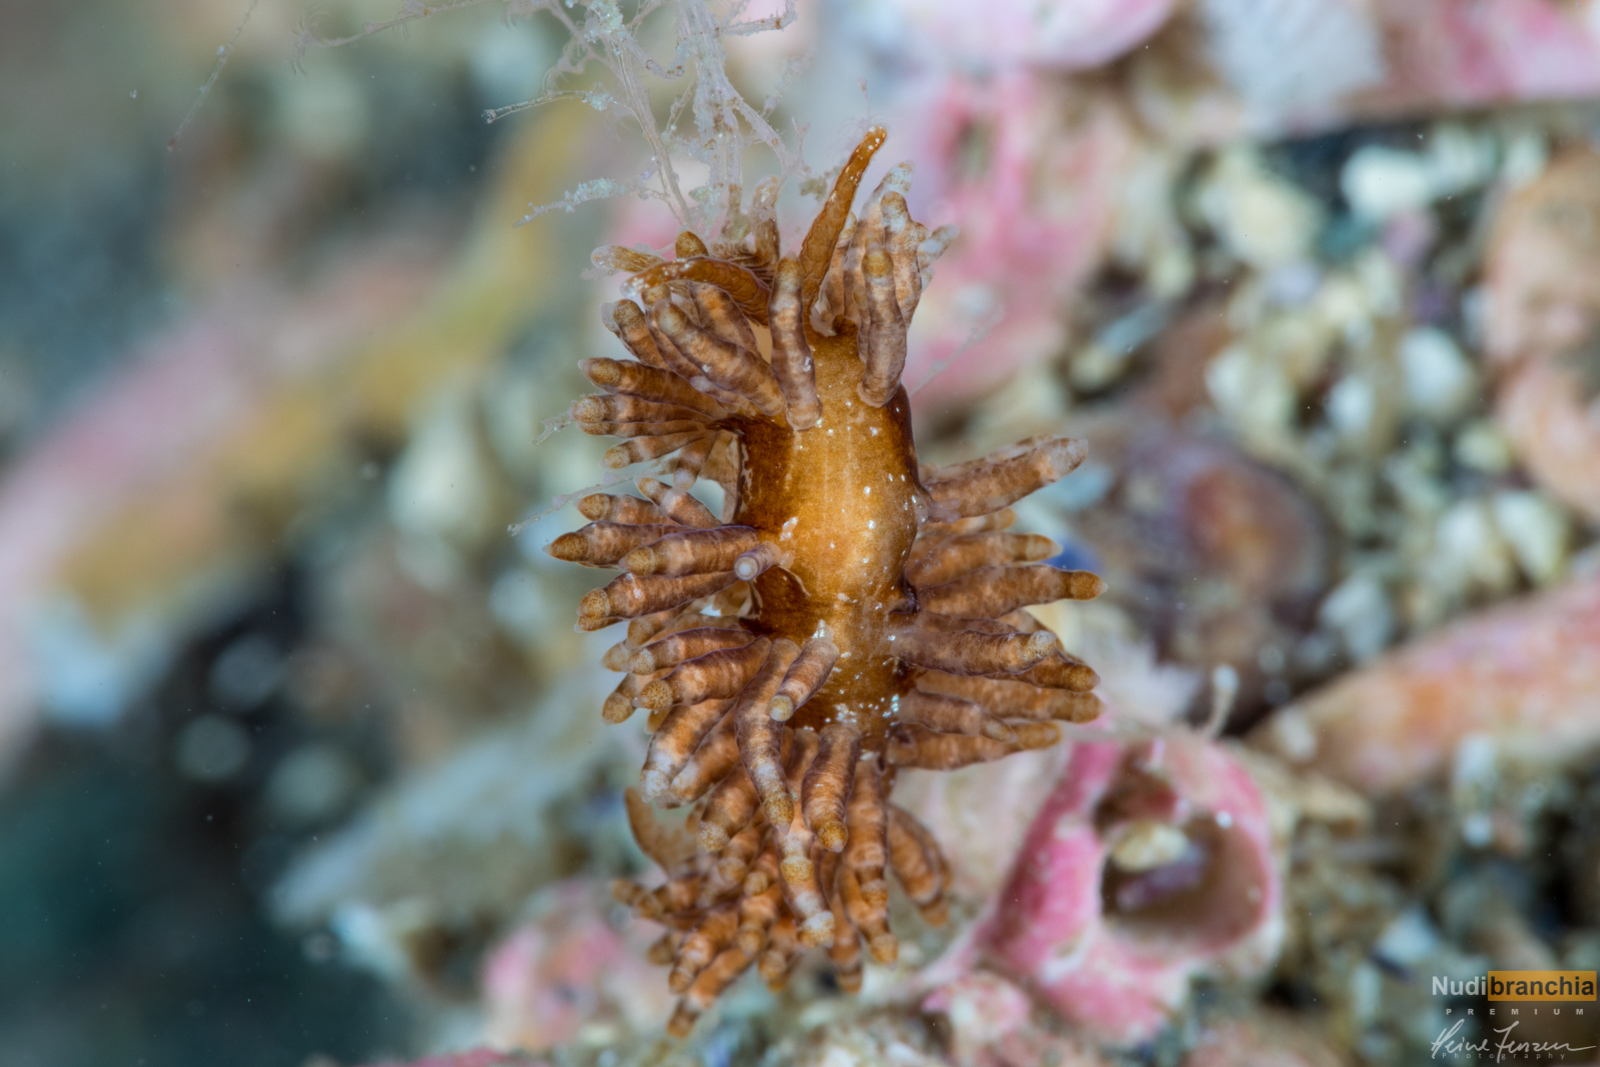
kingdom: Animalia
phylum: Mollusca
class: Gastropoda
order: Nudibranchia
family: Eubranchidae
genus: Eubranchus
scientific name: Eubranchus vittatus
